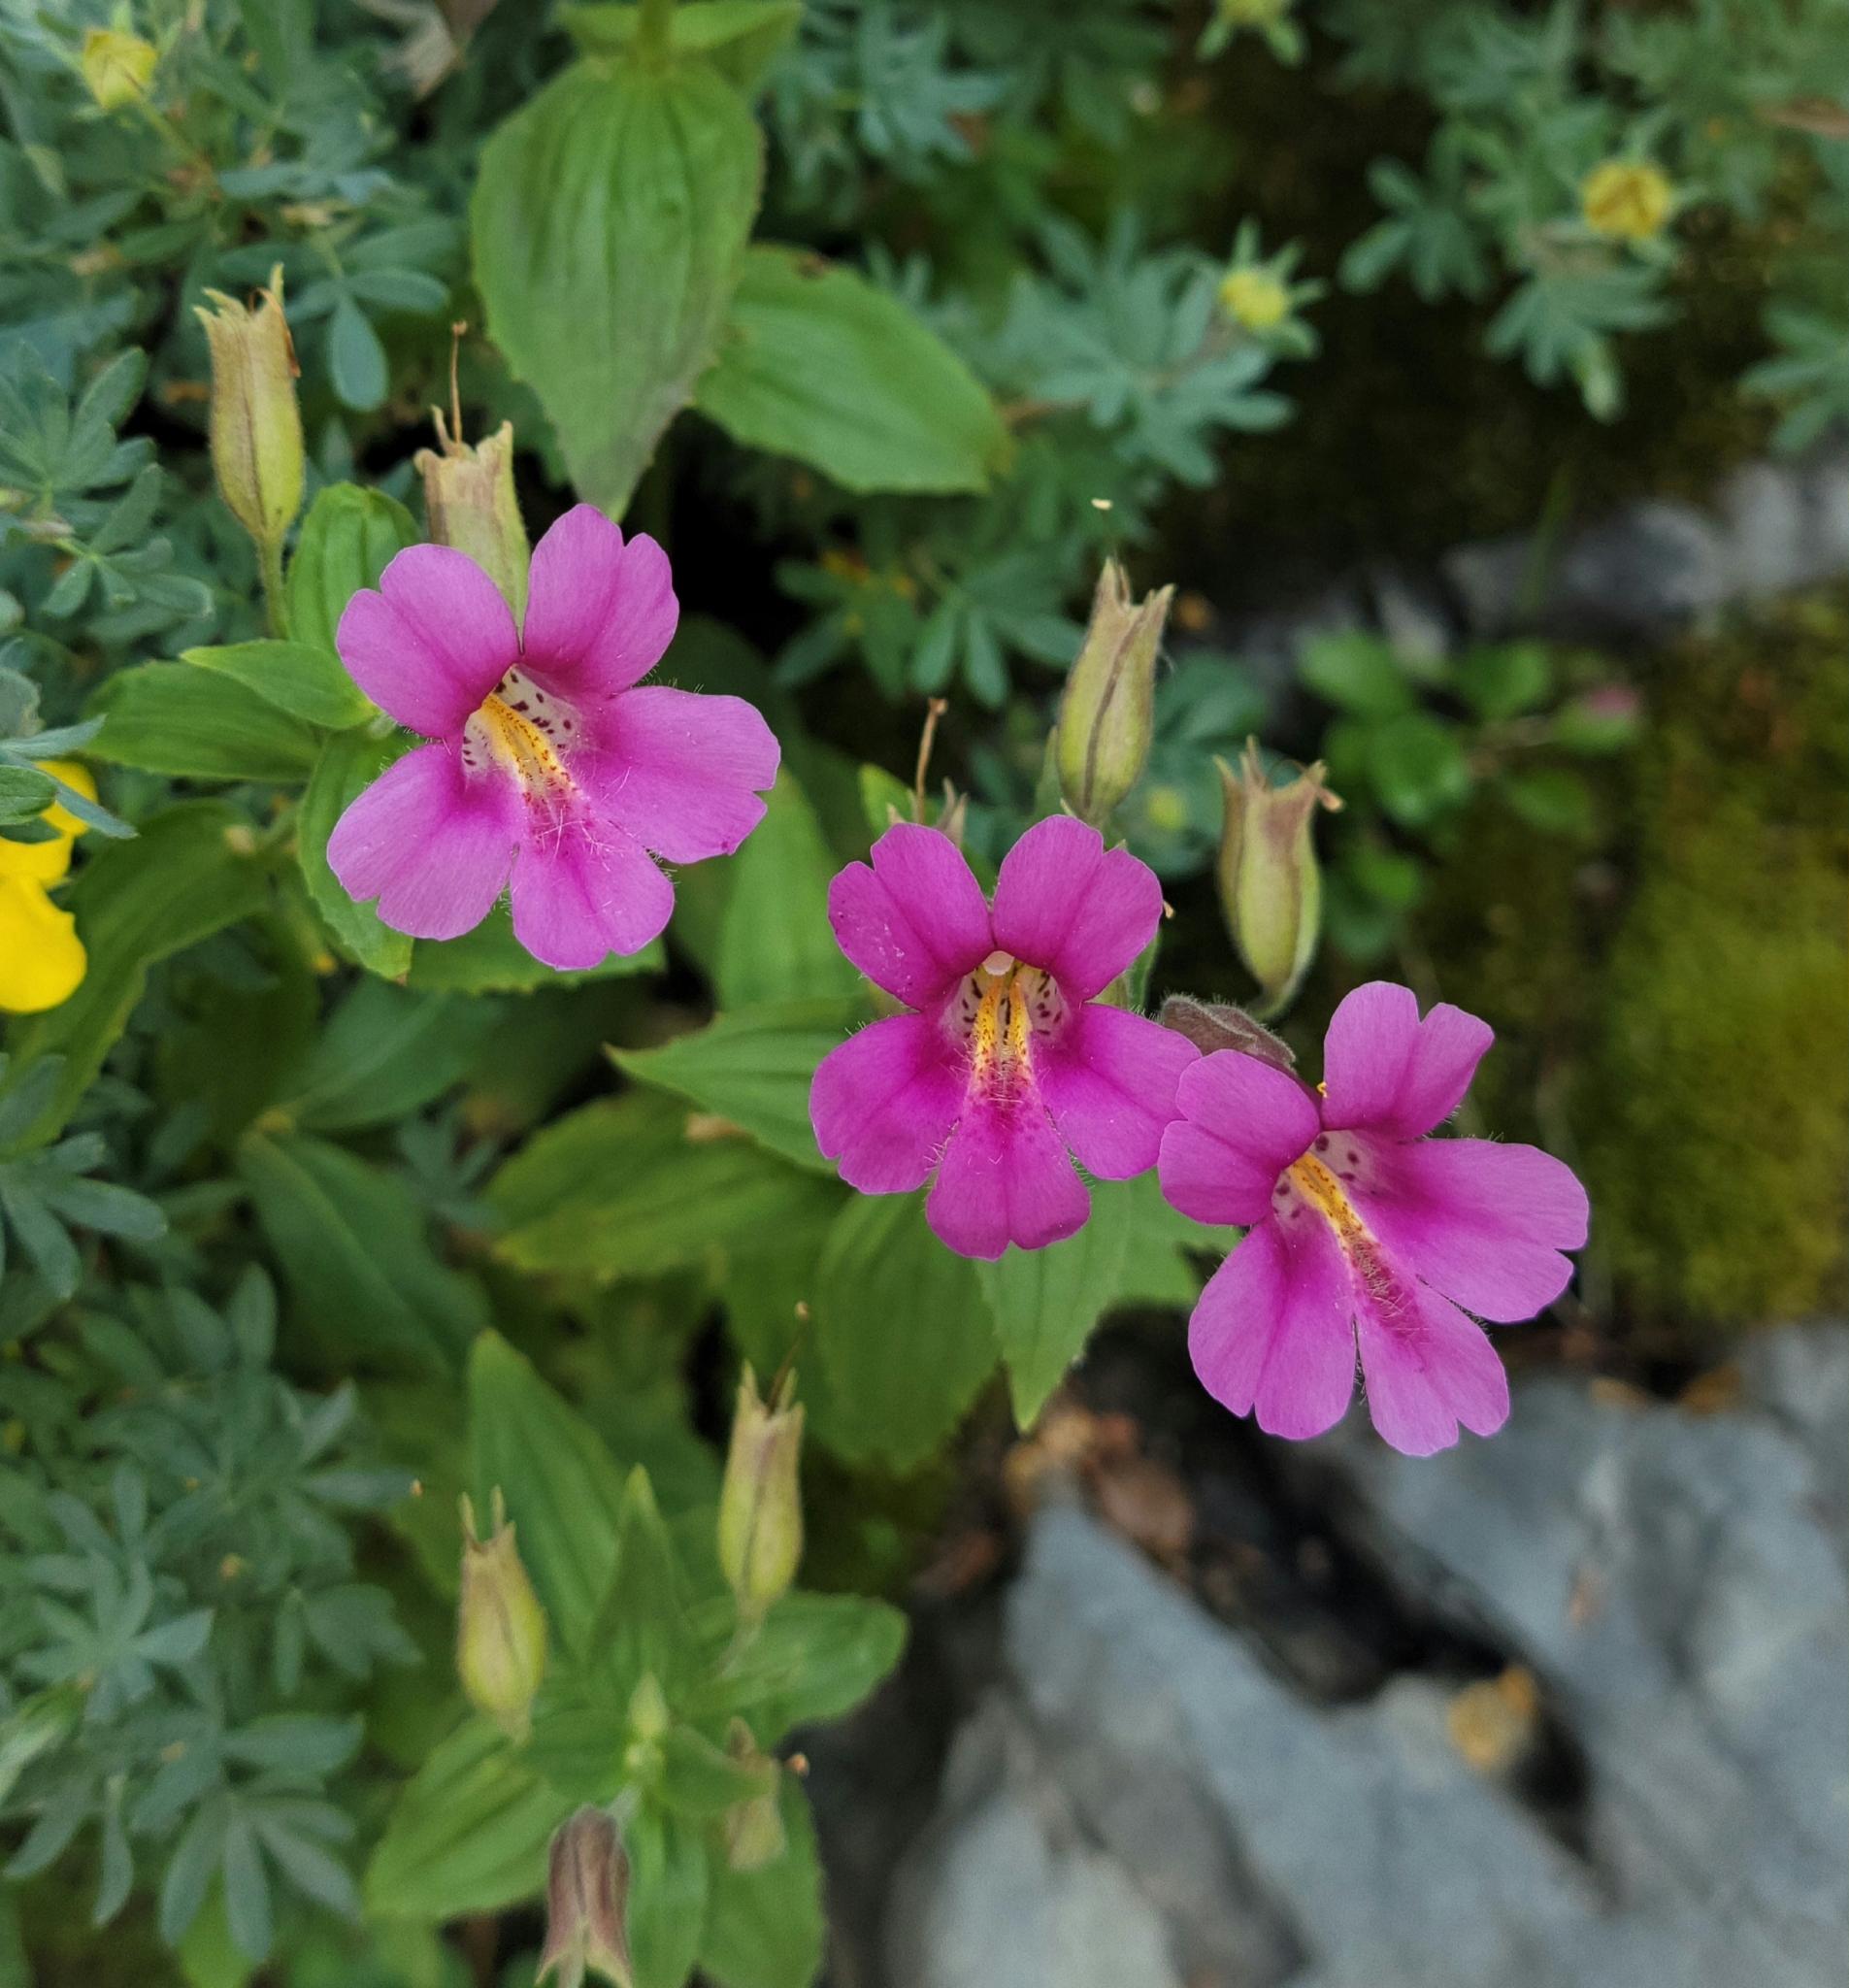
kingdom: Plantae
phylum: Tracheophyta
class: Magnoliopsida
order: Lamiales
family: Phrymaceae
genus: Erythranthe
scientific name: Erythranthe lewisii
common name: Lewis's monkey-flower
